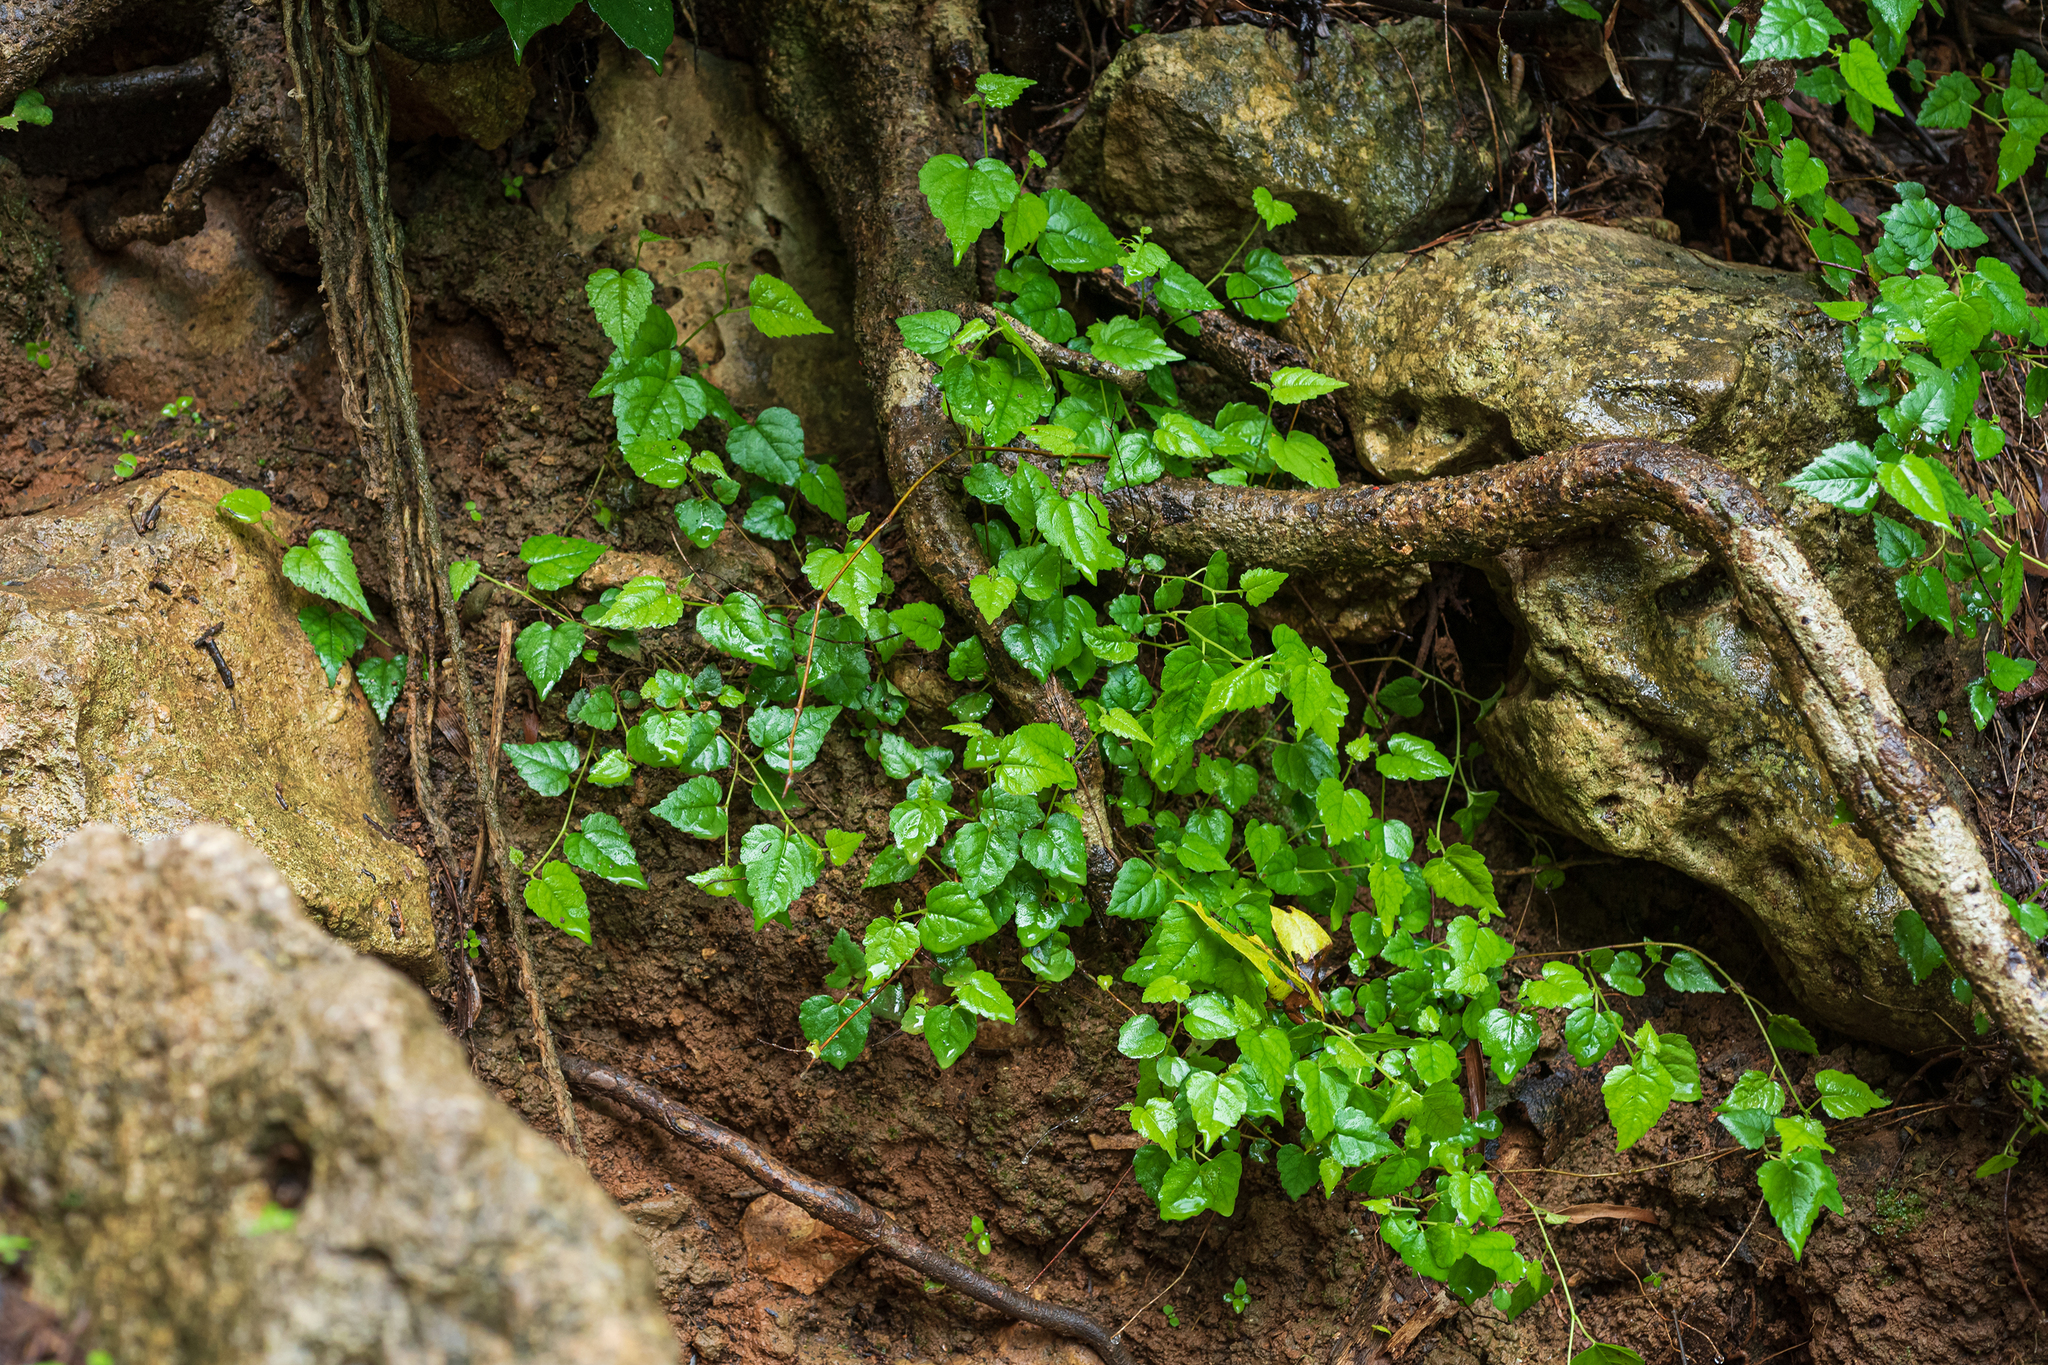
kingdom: Plantae
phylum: Tracheophyta
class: Magnoliopsida
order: Rosales
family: Moraceae
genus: Fatoua
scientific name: Fatoua villosa
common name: Hairy crabweed
